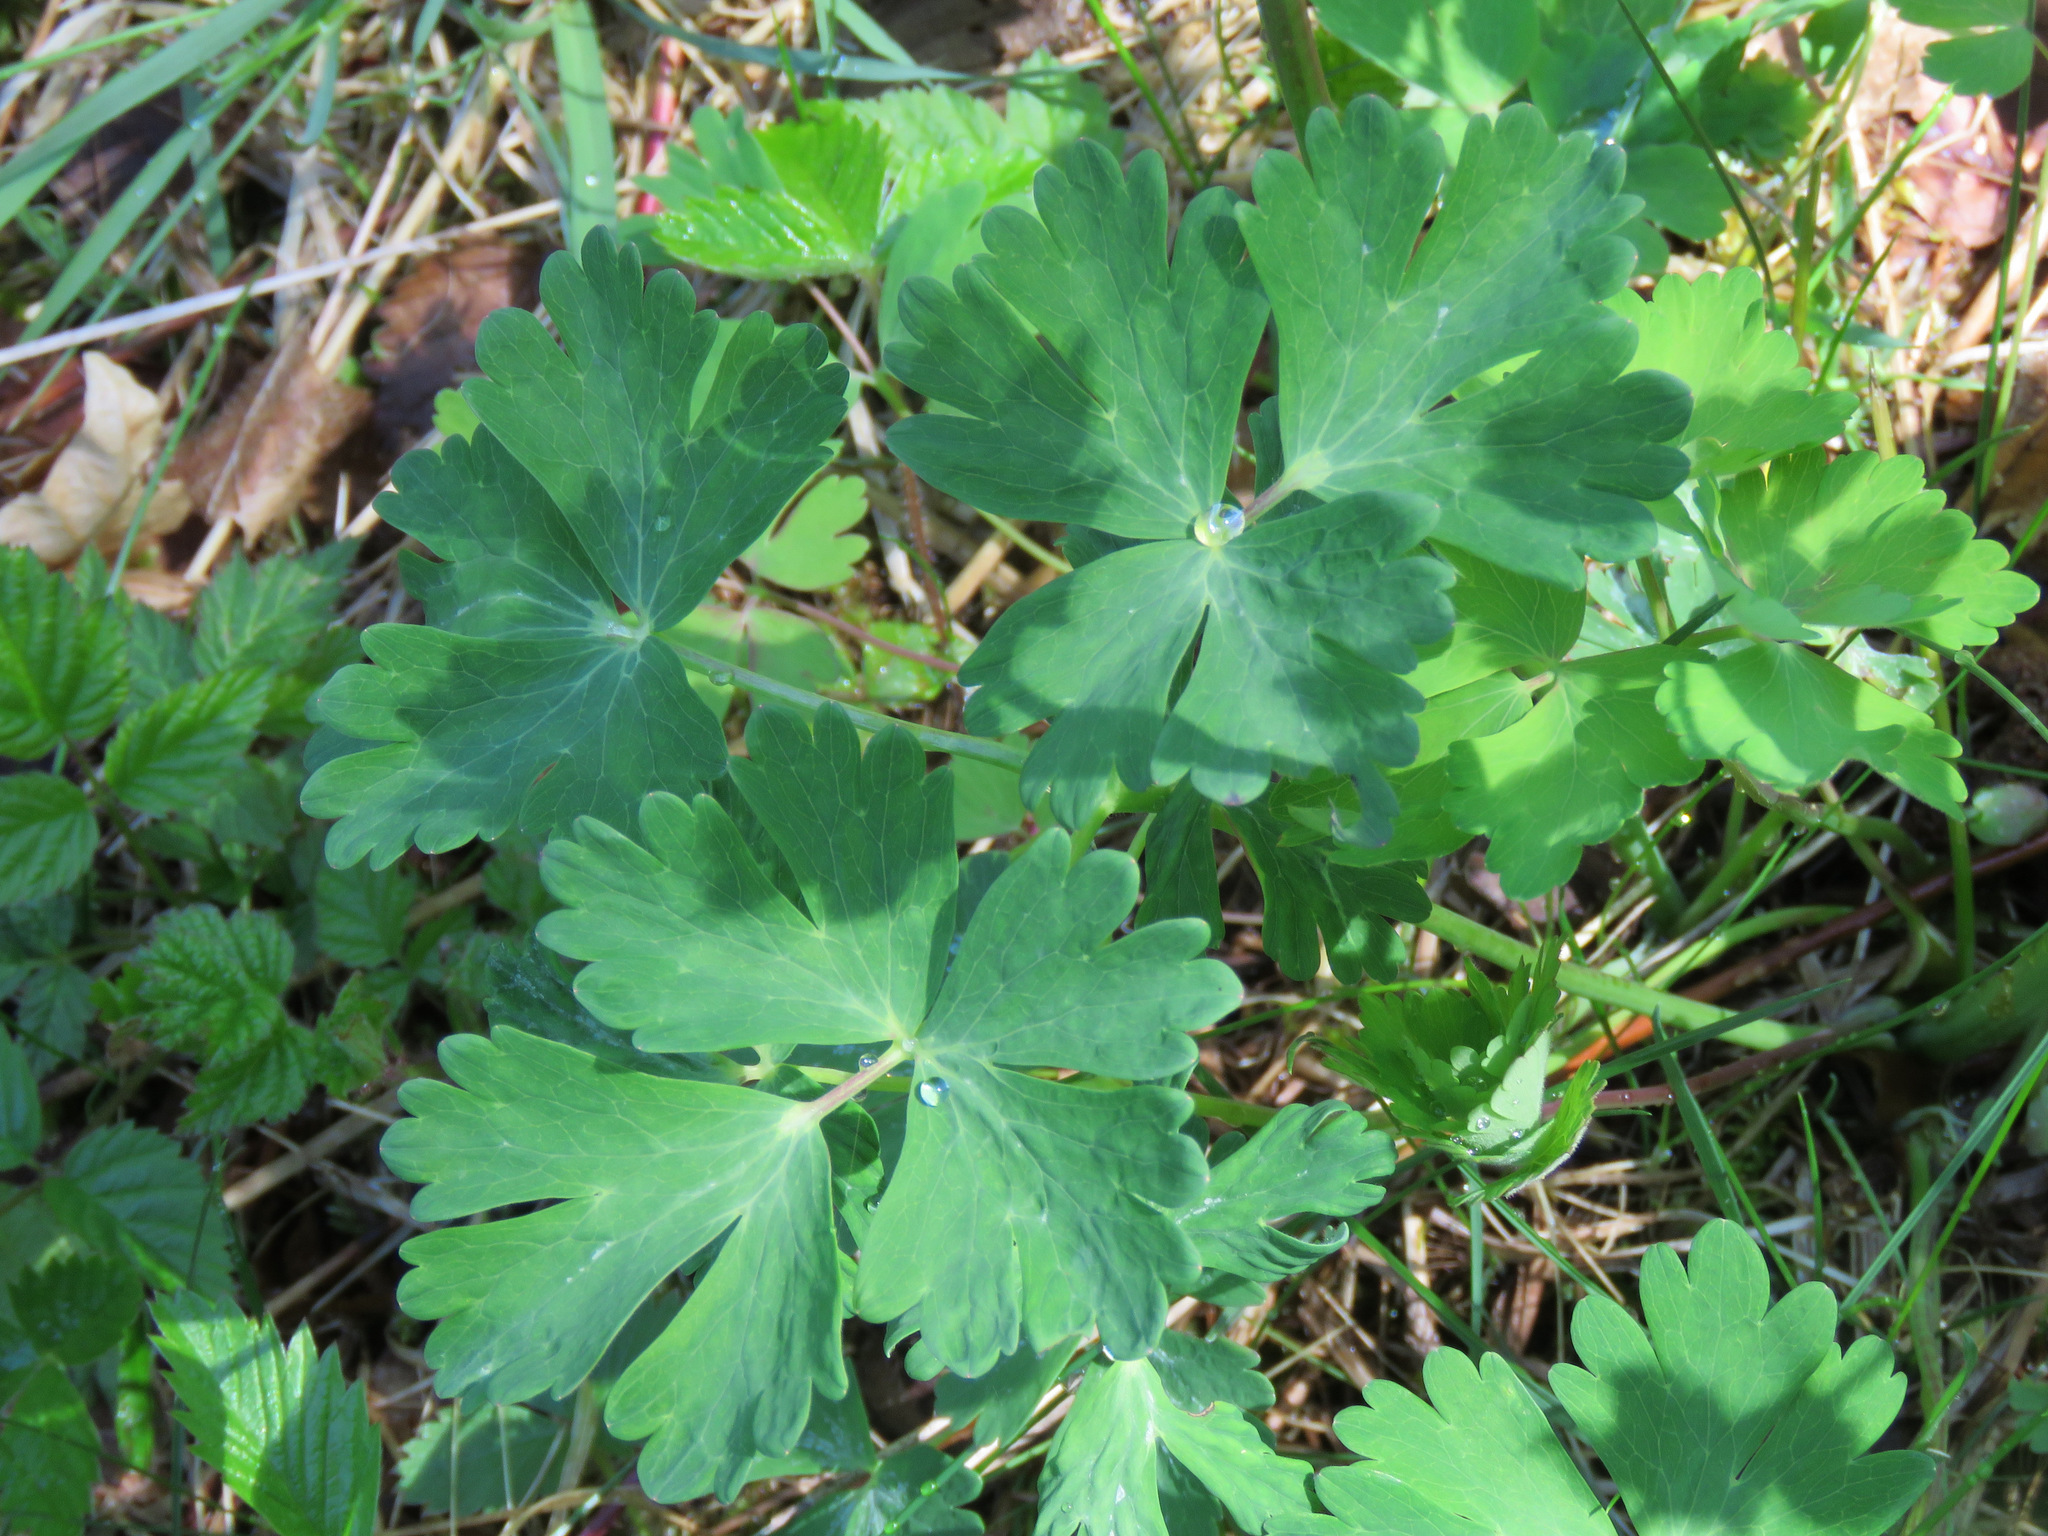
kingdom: Plantae
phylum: Tracheophyta
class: Magnoliopsida
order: Ranunculales
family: Ranunculaceae
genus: Aquilegia
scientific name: Aquilegia formosa
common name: Sitka columbine
